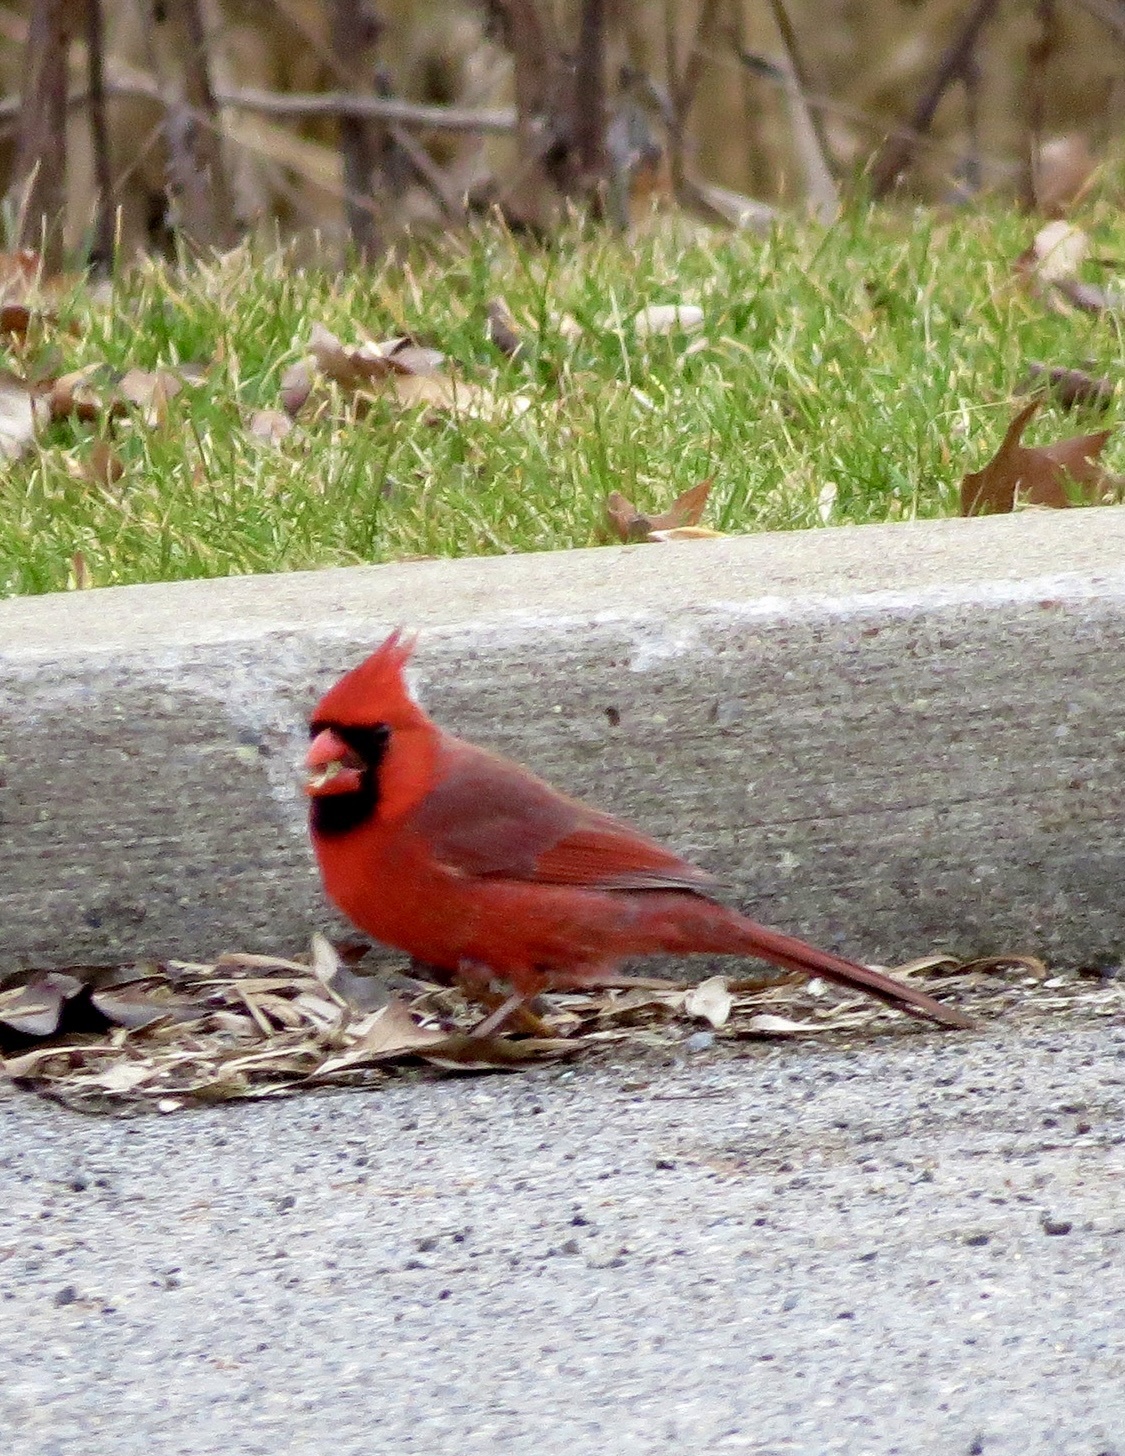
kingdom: Animalia
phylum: Chordata
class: Aves
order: Passeriformes
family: Cardinalidae
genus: Cardinalis
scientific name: Cardinalis cardinalis
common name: Northern cardinal
